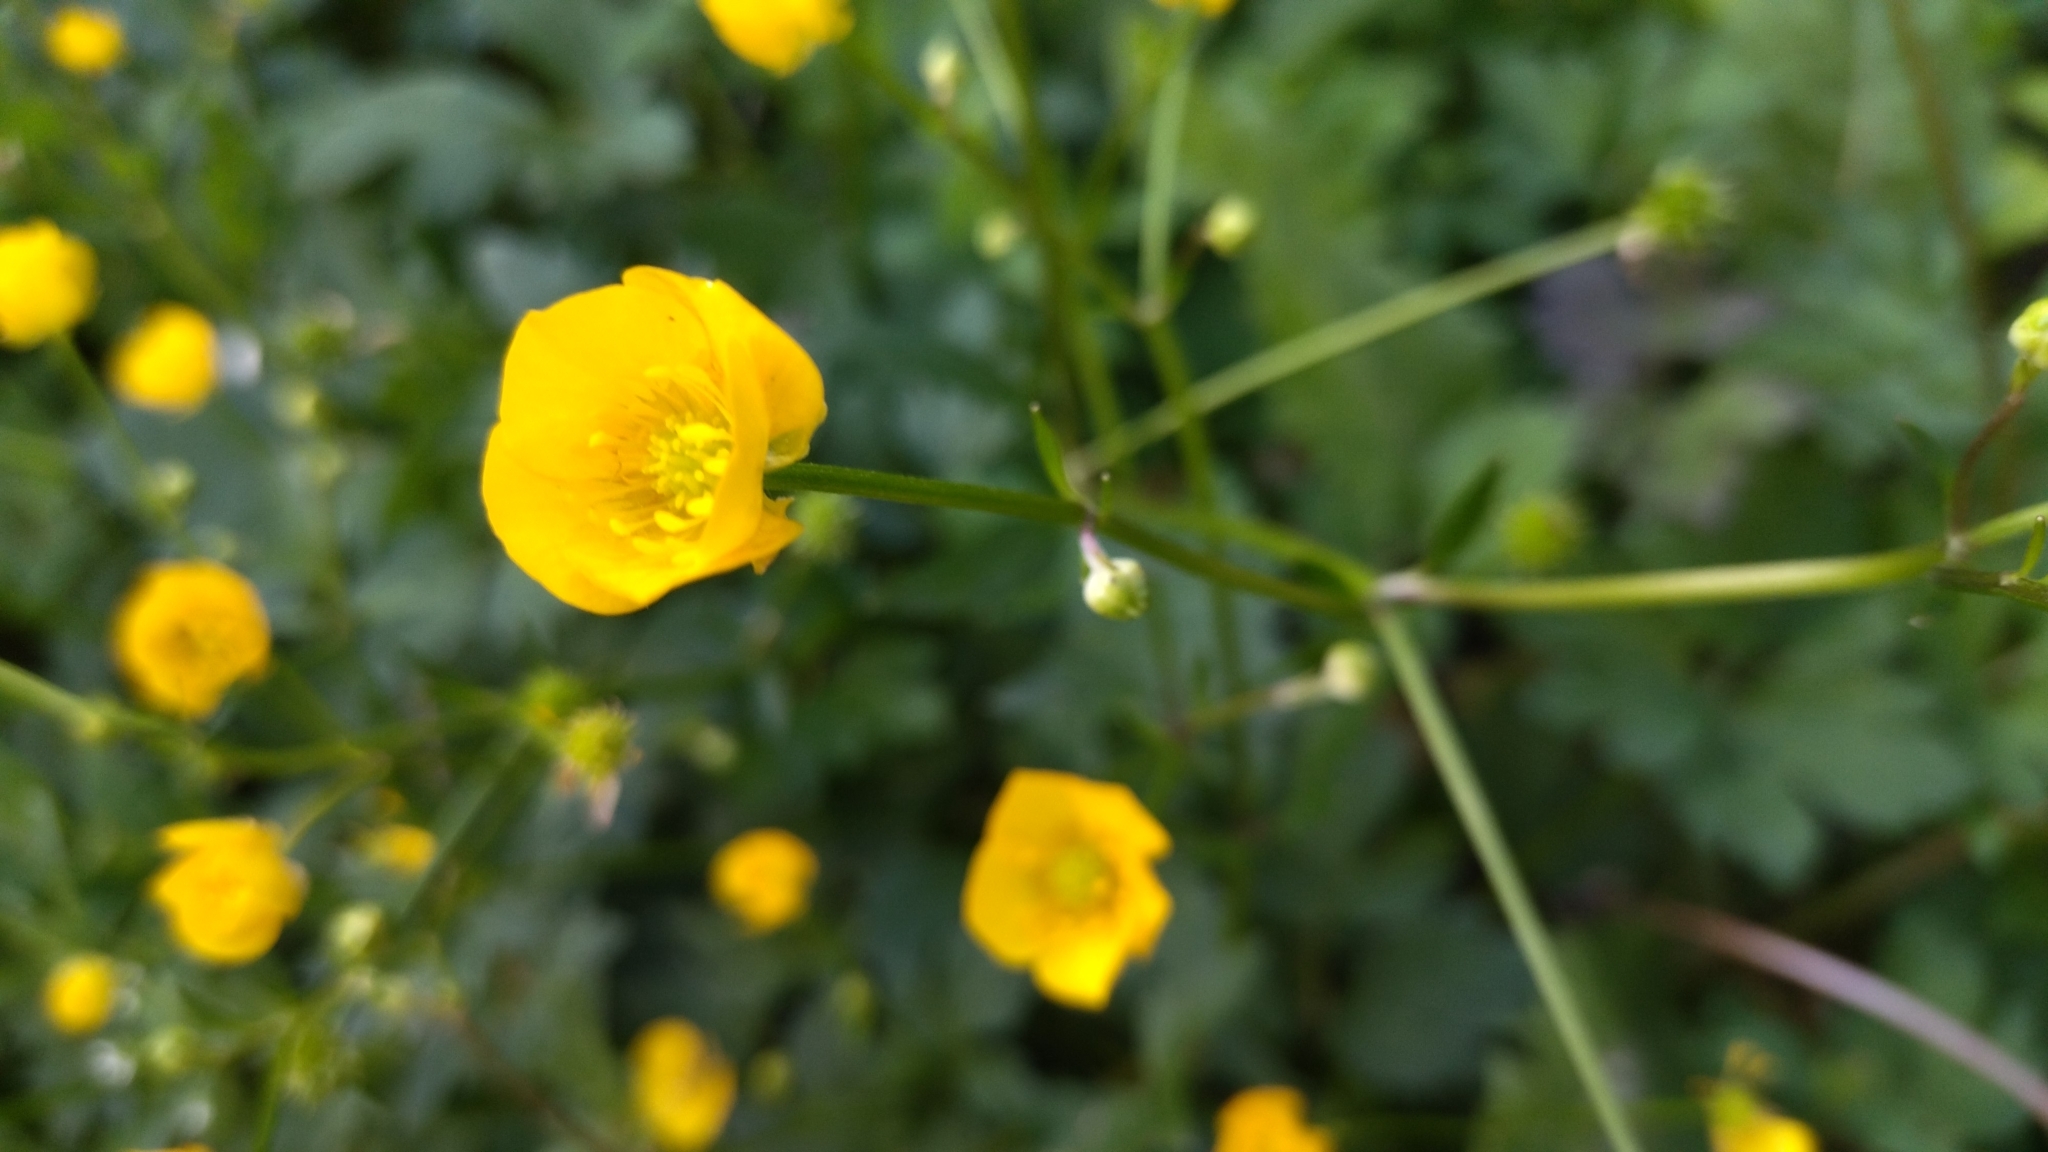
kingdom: Plantae
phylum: Tracheophyta
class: Magnoliopsida
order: Ranunculales
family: Ranunculaceae
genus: Ranunculus
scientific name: Ranunculus repens
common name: Creeping buttercup
